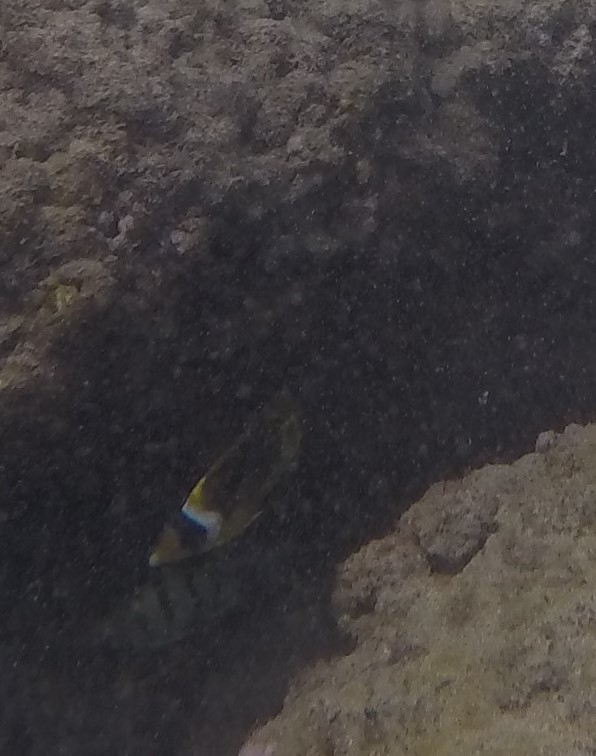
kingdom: Animalia
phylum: Chordata
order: Perciformes
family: Chaetodontidae
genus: Chaetodon
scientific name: Chaetodon lunula
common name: Raccoon butterflyfish
